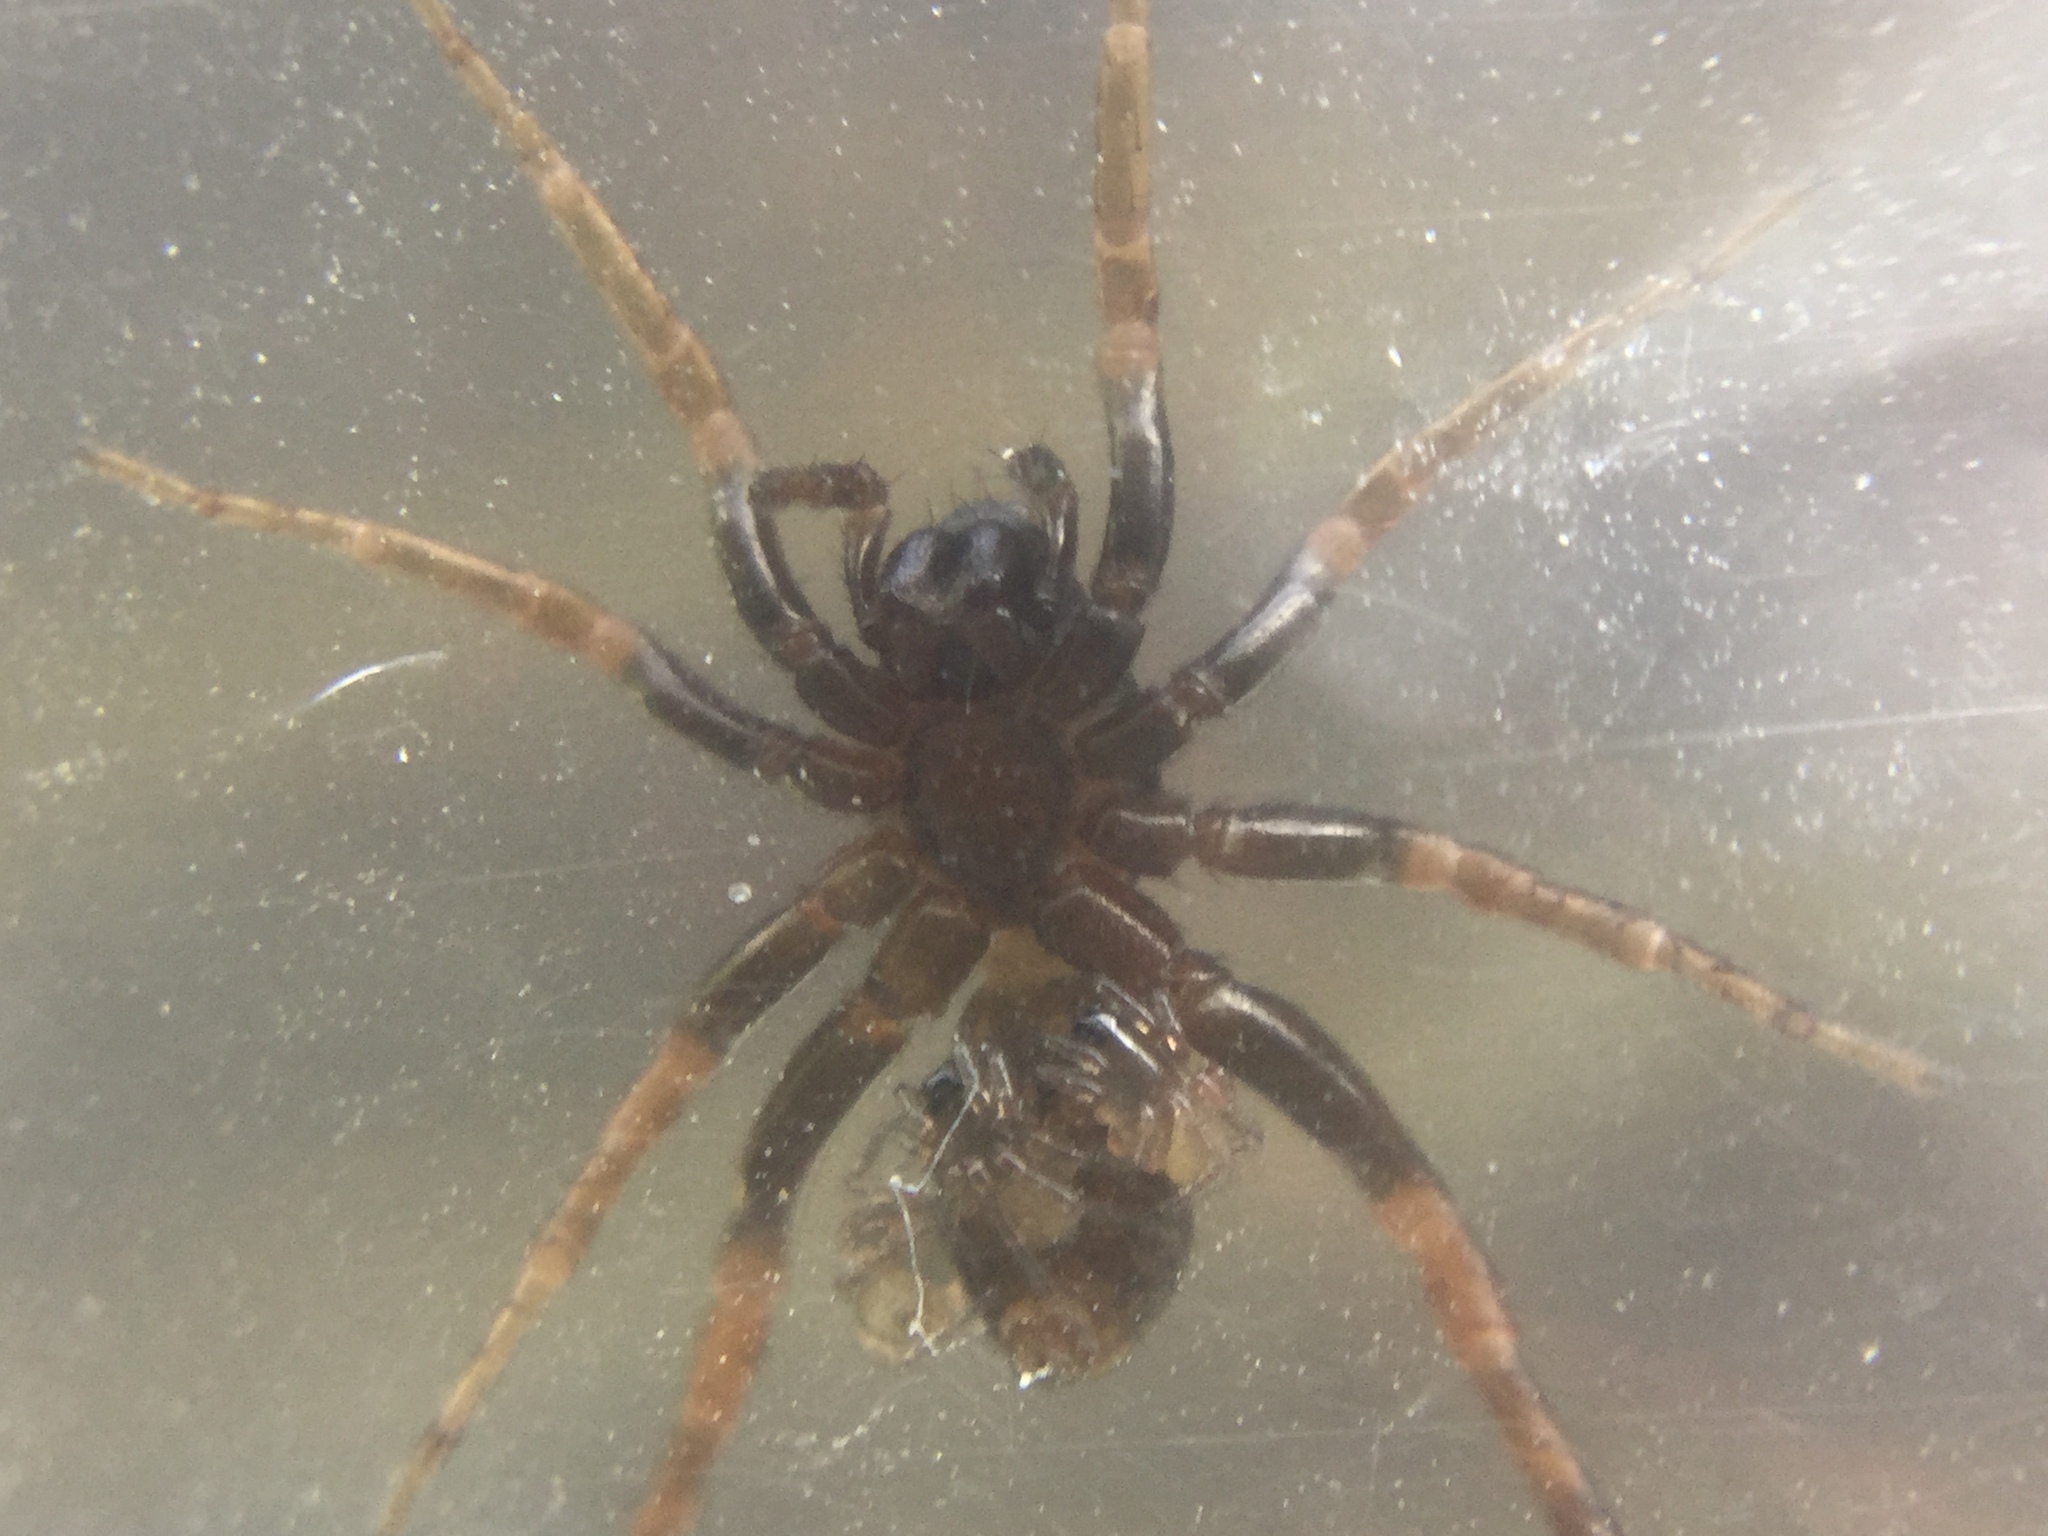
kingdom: Animalia
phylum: Arthropoda
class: Arachnida
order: Araneae
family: Lycosidae
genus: Allocosa
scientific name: Allocosa funerea
